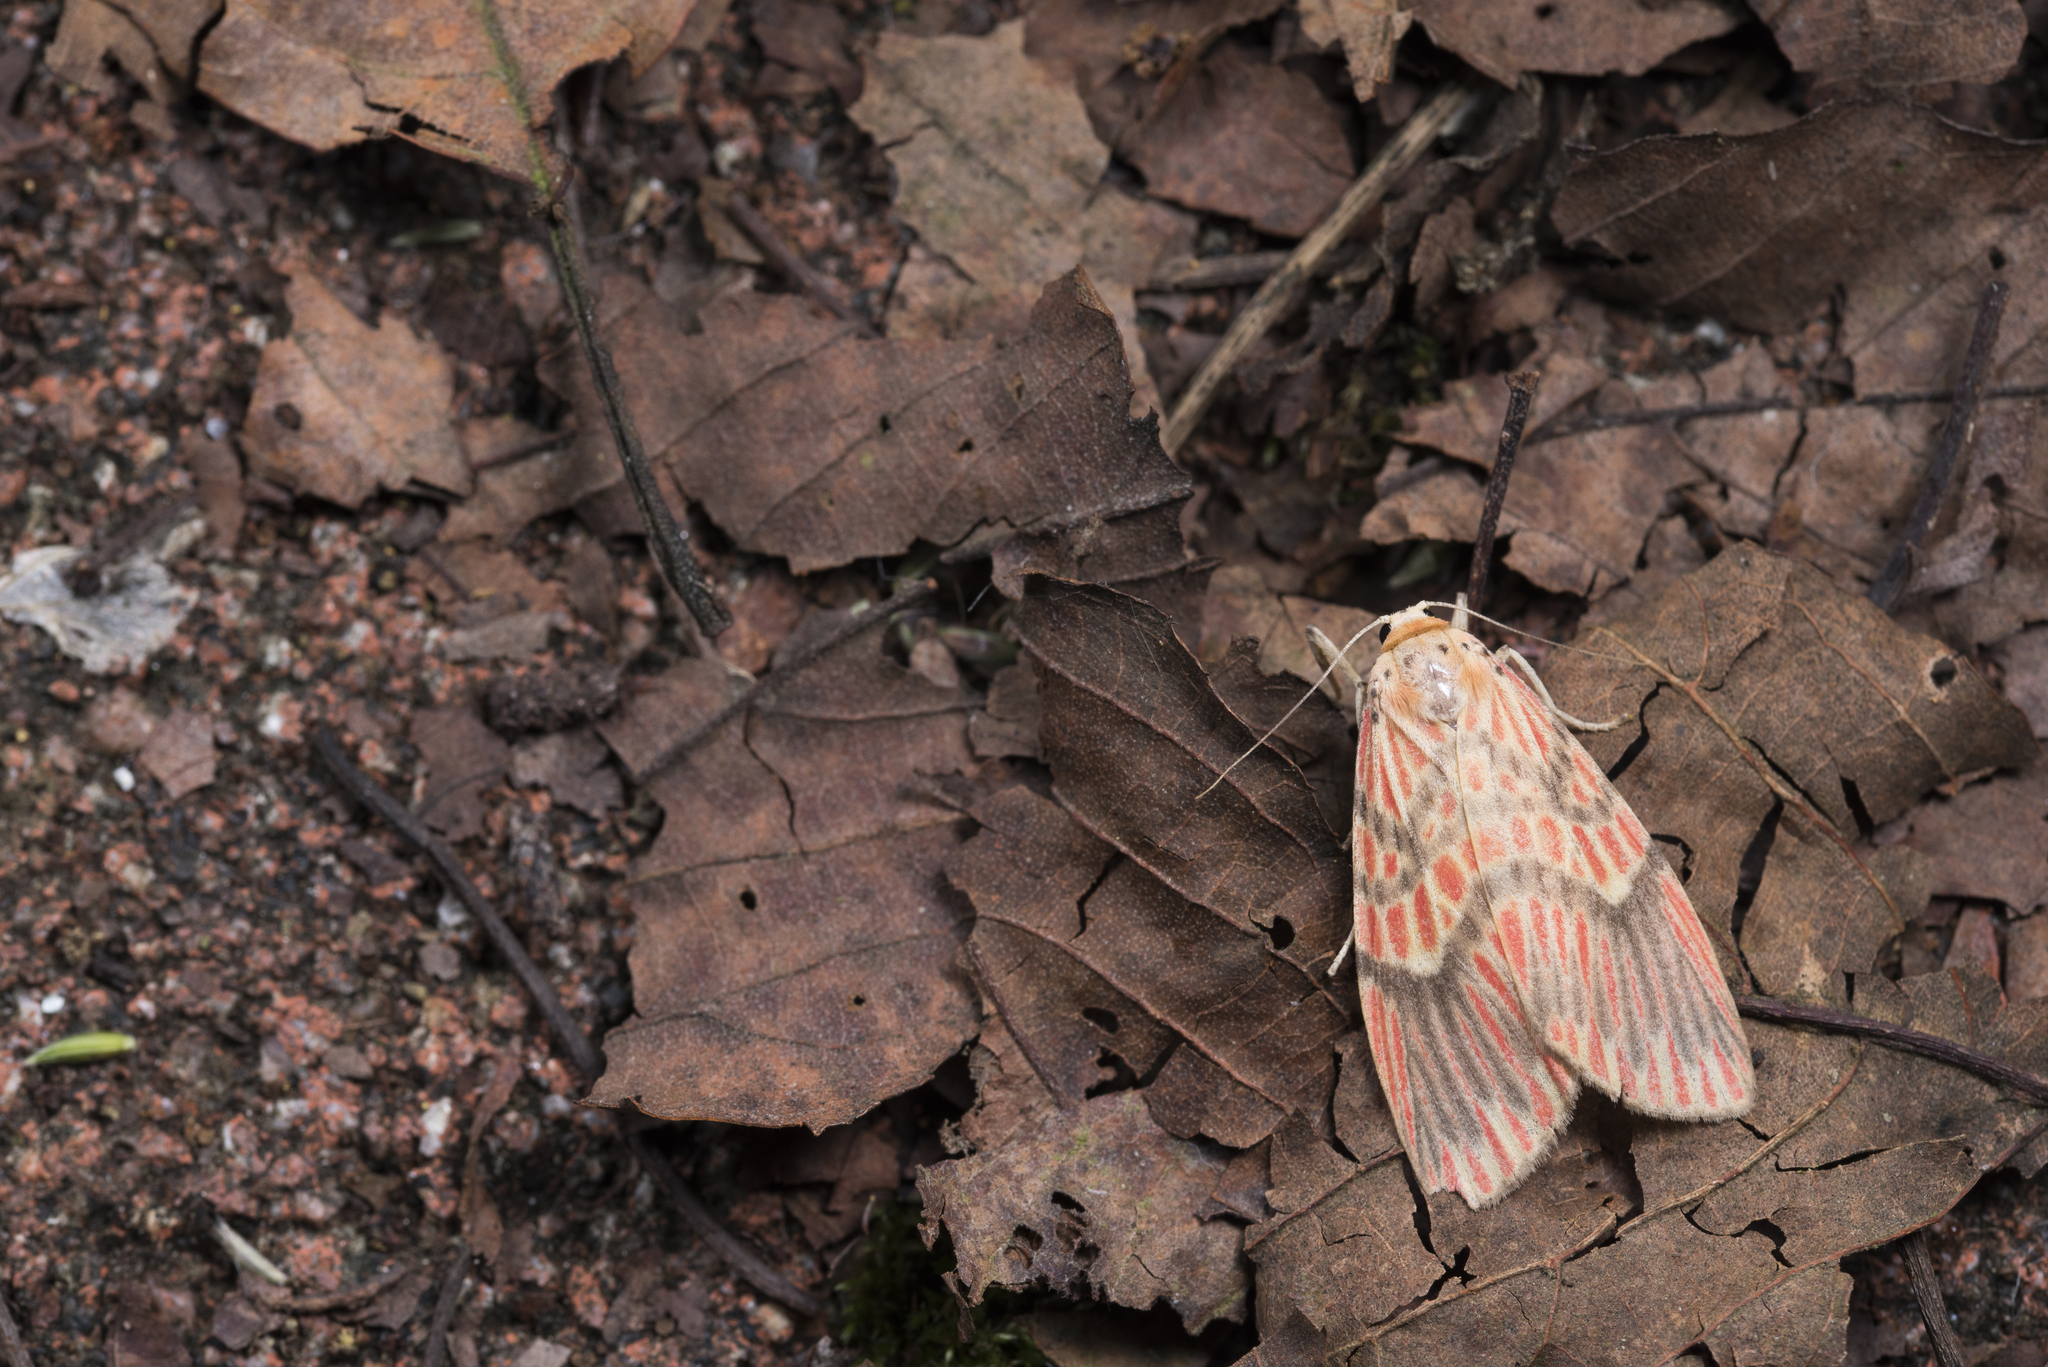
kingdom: Animalia
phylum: Arthropoda
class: Insecta
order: Lepidoptera
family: Erebidae
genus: Barsine
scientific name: Barsine fuscozonata
